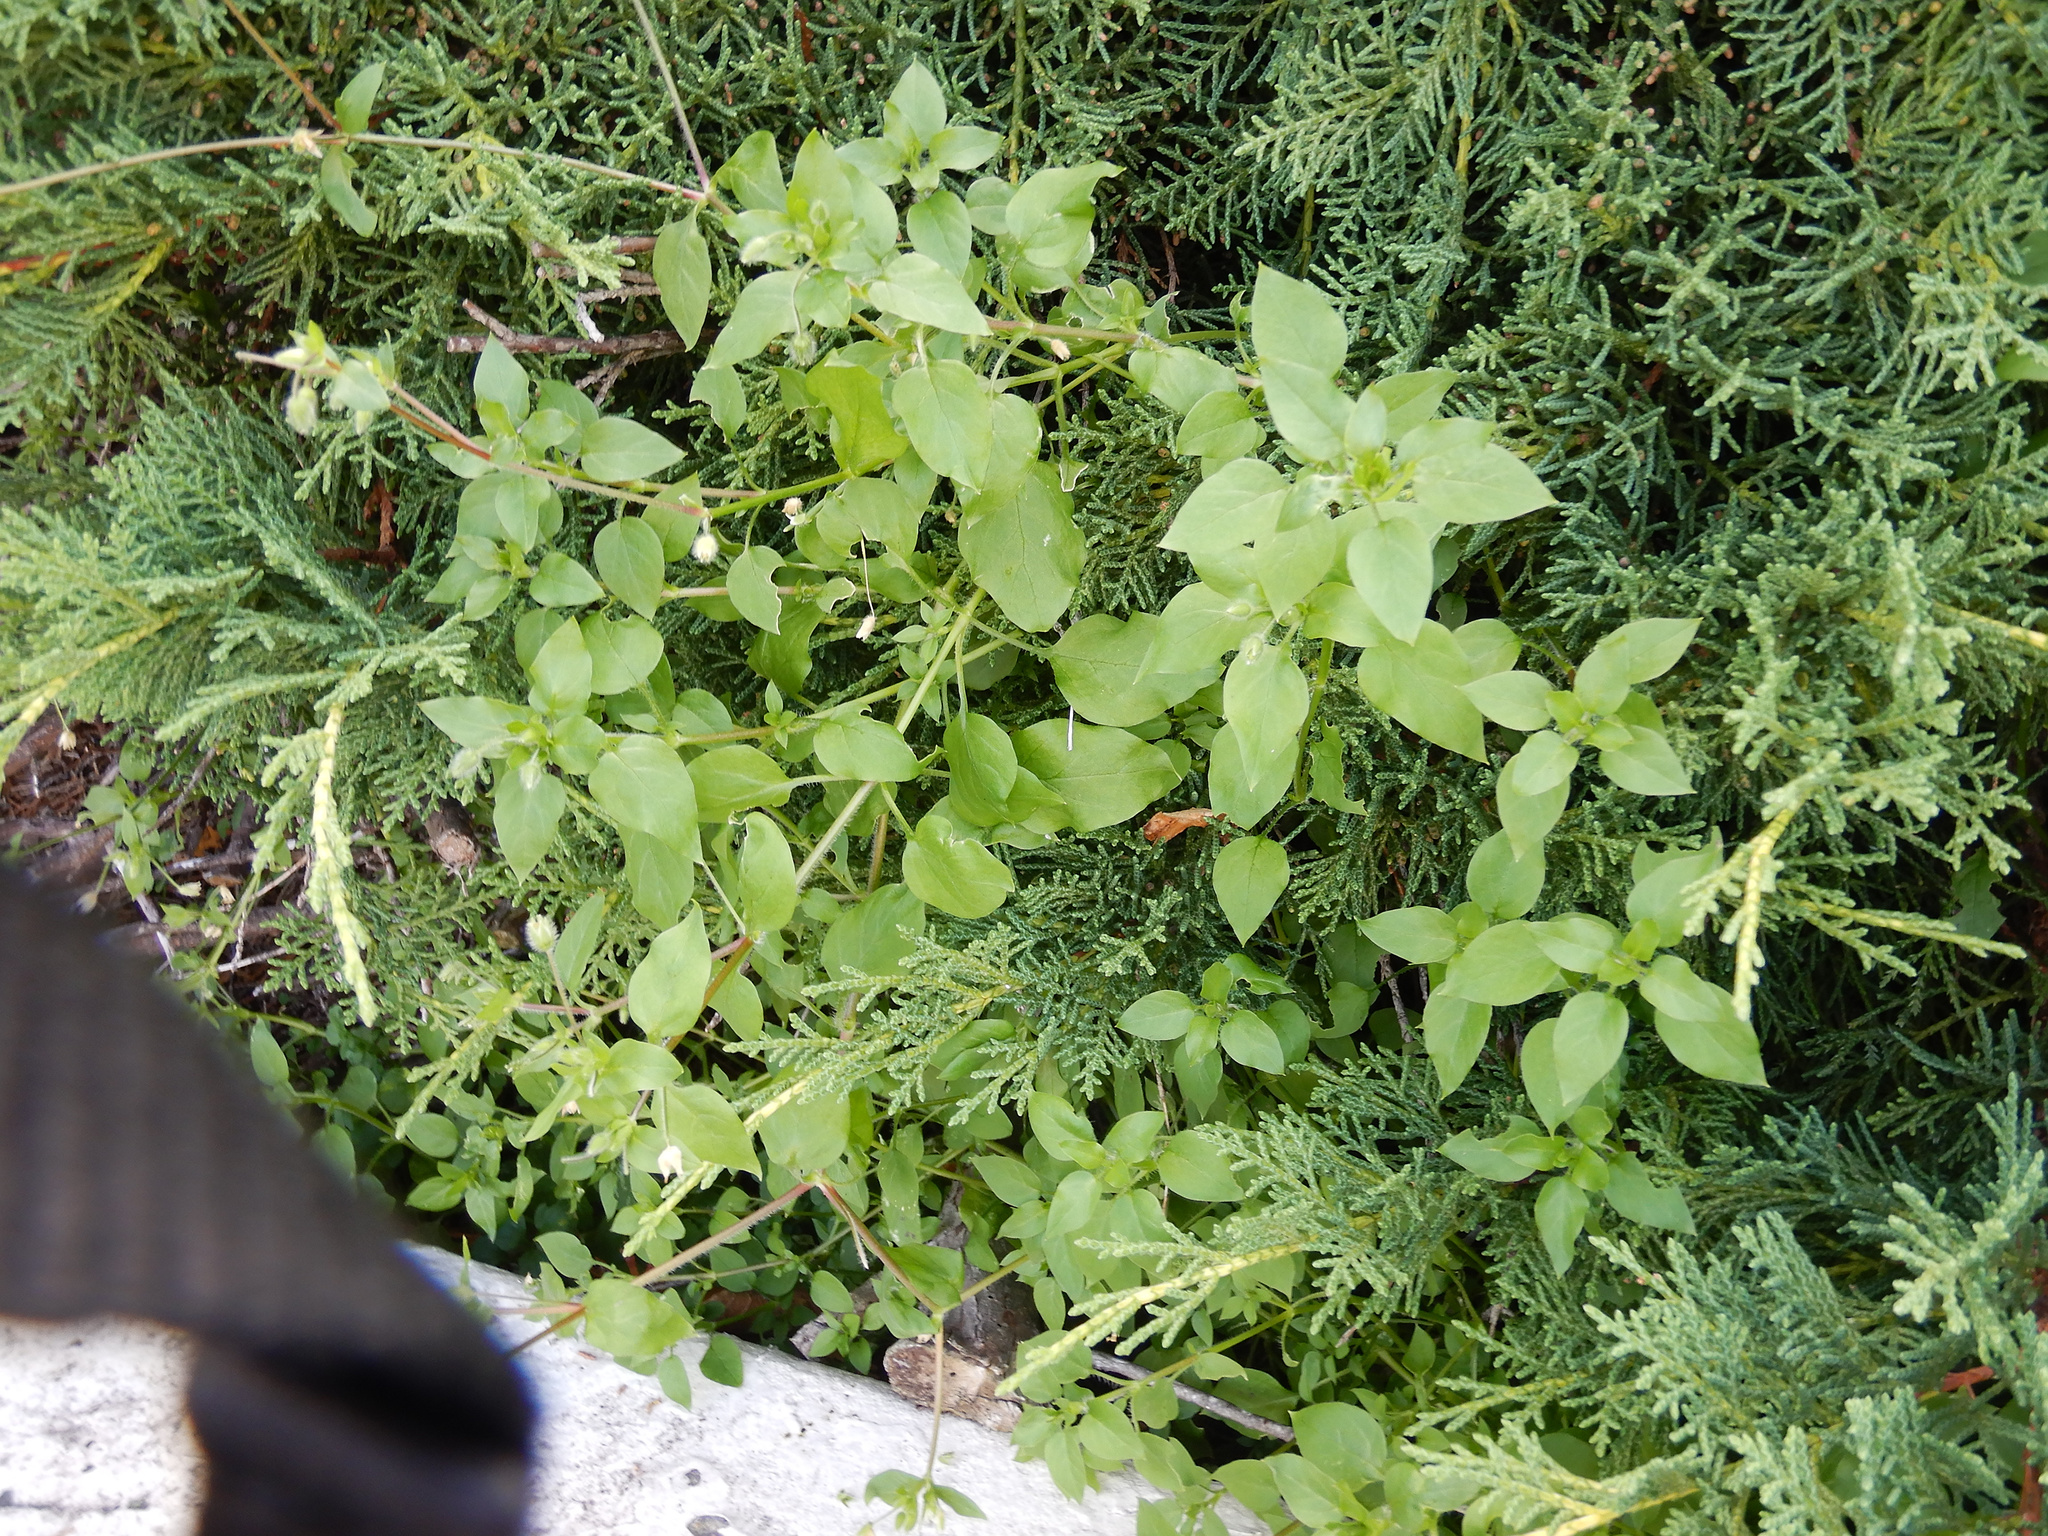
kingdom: Plantae
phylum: Tracheophyta
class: Magnoliopsida
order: Caryophyllales
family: Caryophyllaceae
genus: Stellaria
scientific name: Stellaria media
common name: Common chickweed
